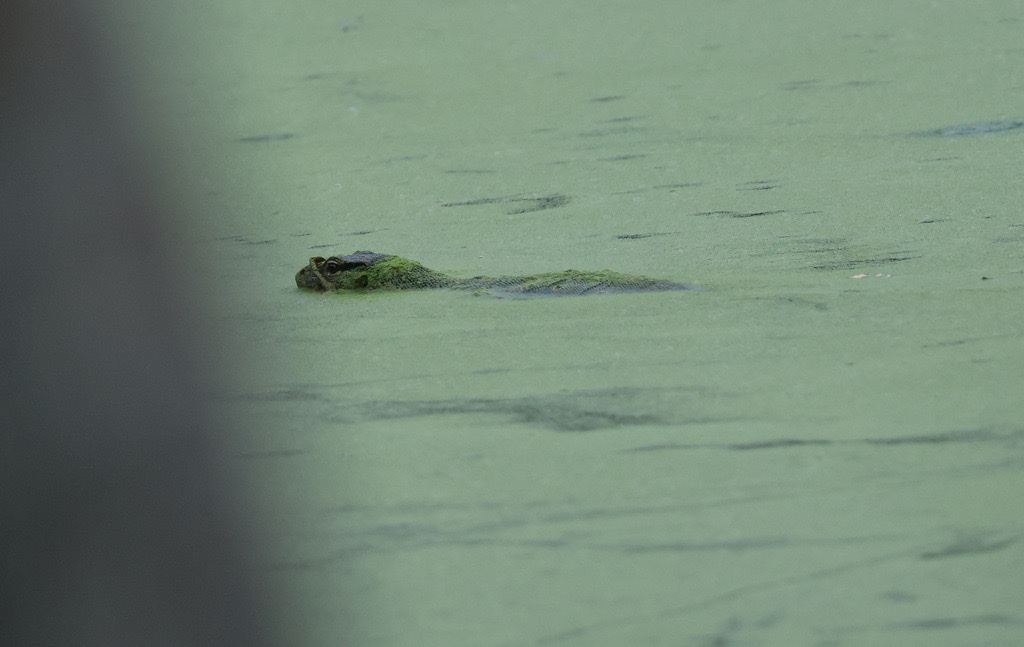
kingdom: Animalia
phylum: Chordata
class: Squamata
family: Varanidae
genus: Varanus
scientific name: Varanus salvator
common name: Common water monitor
